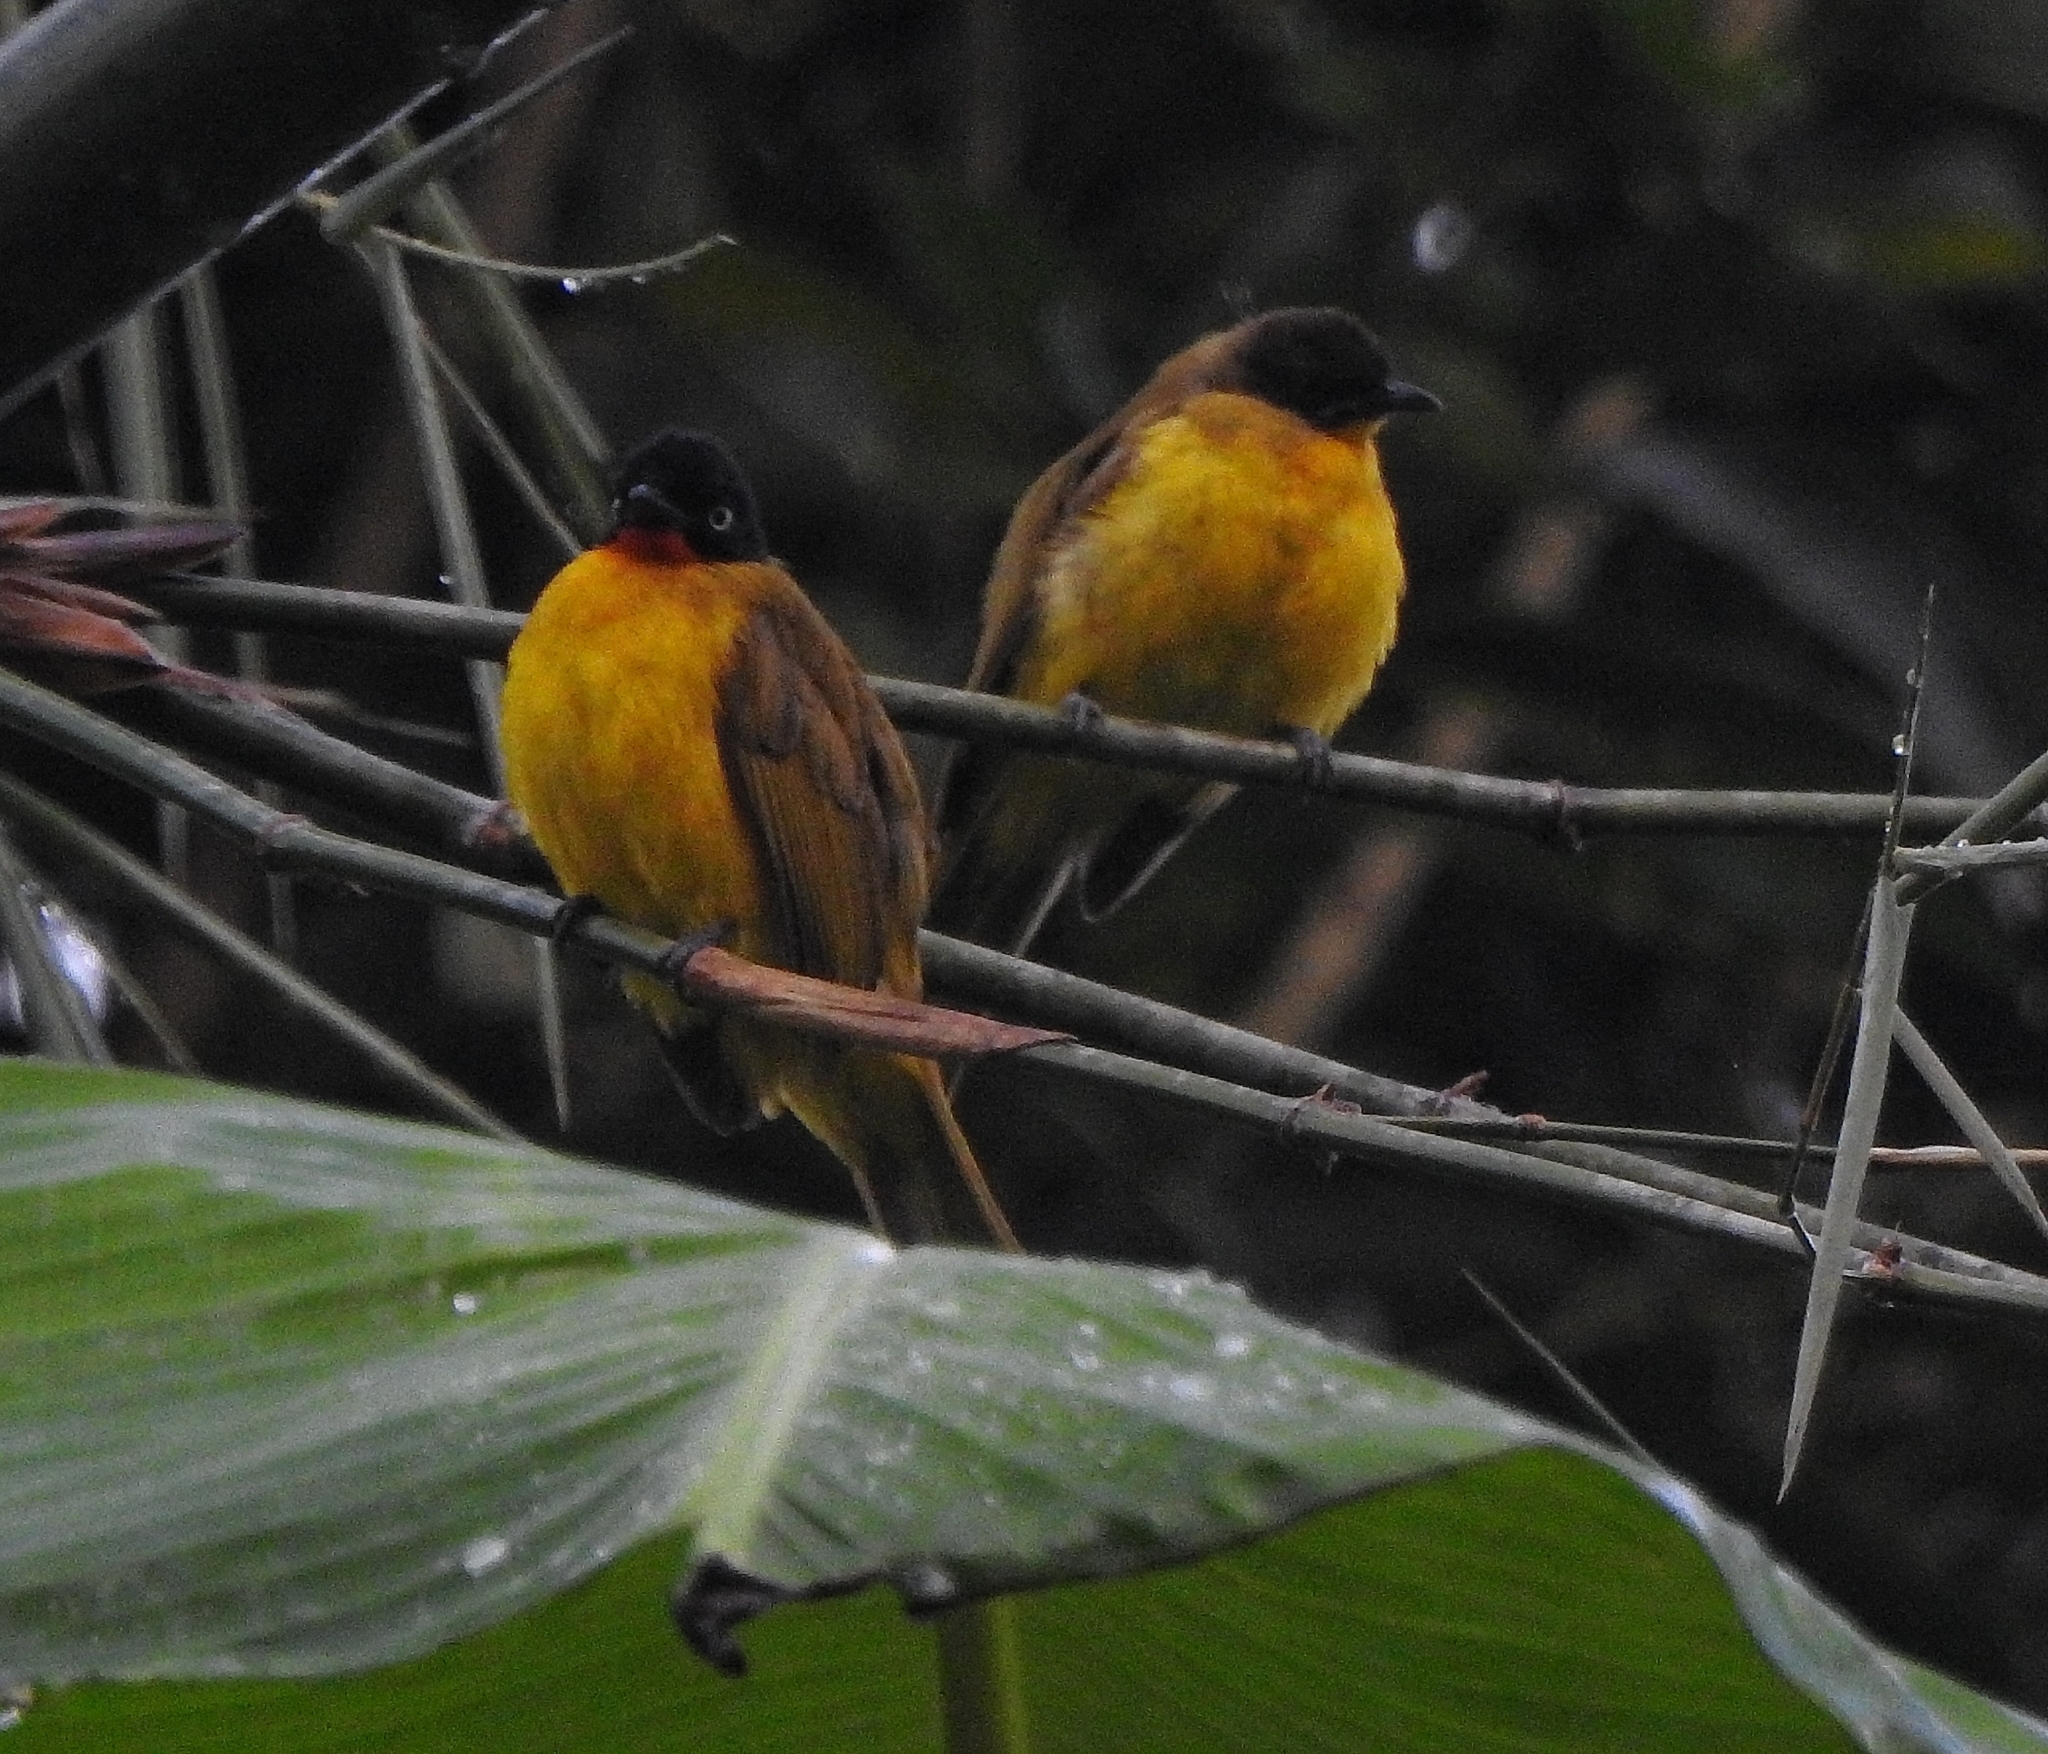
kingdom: Animalia
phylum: Chordata
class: Aves
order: Passeriformes
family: Pycnonotidae
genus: Pycnonotus
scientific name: Pycnonotus gularis
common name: Flame-throated bulbul
